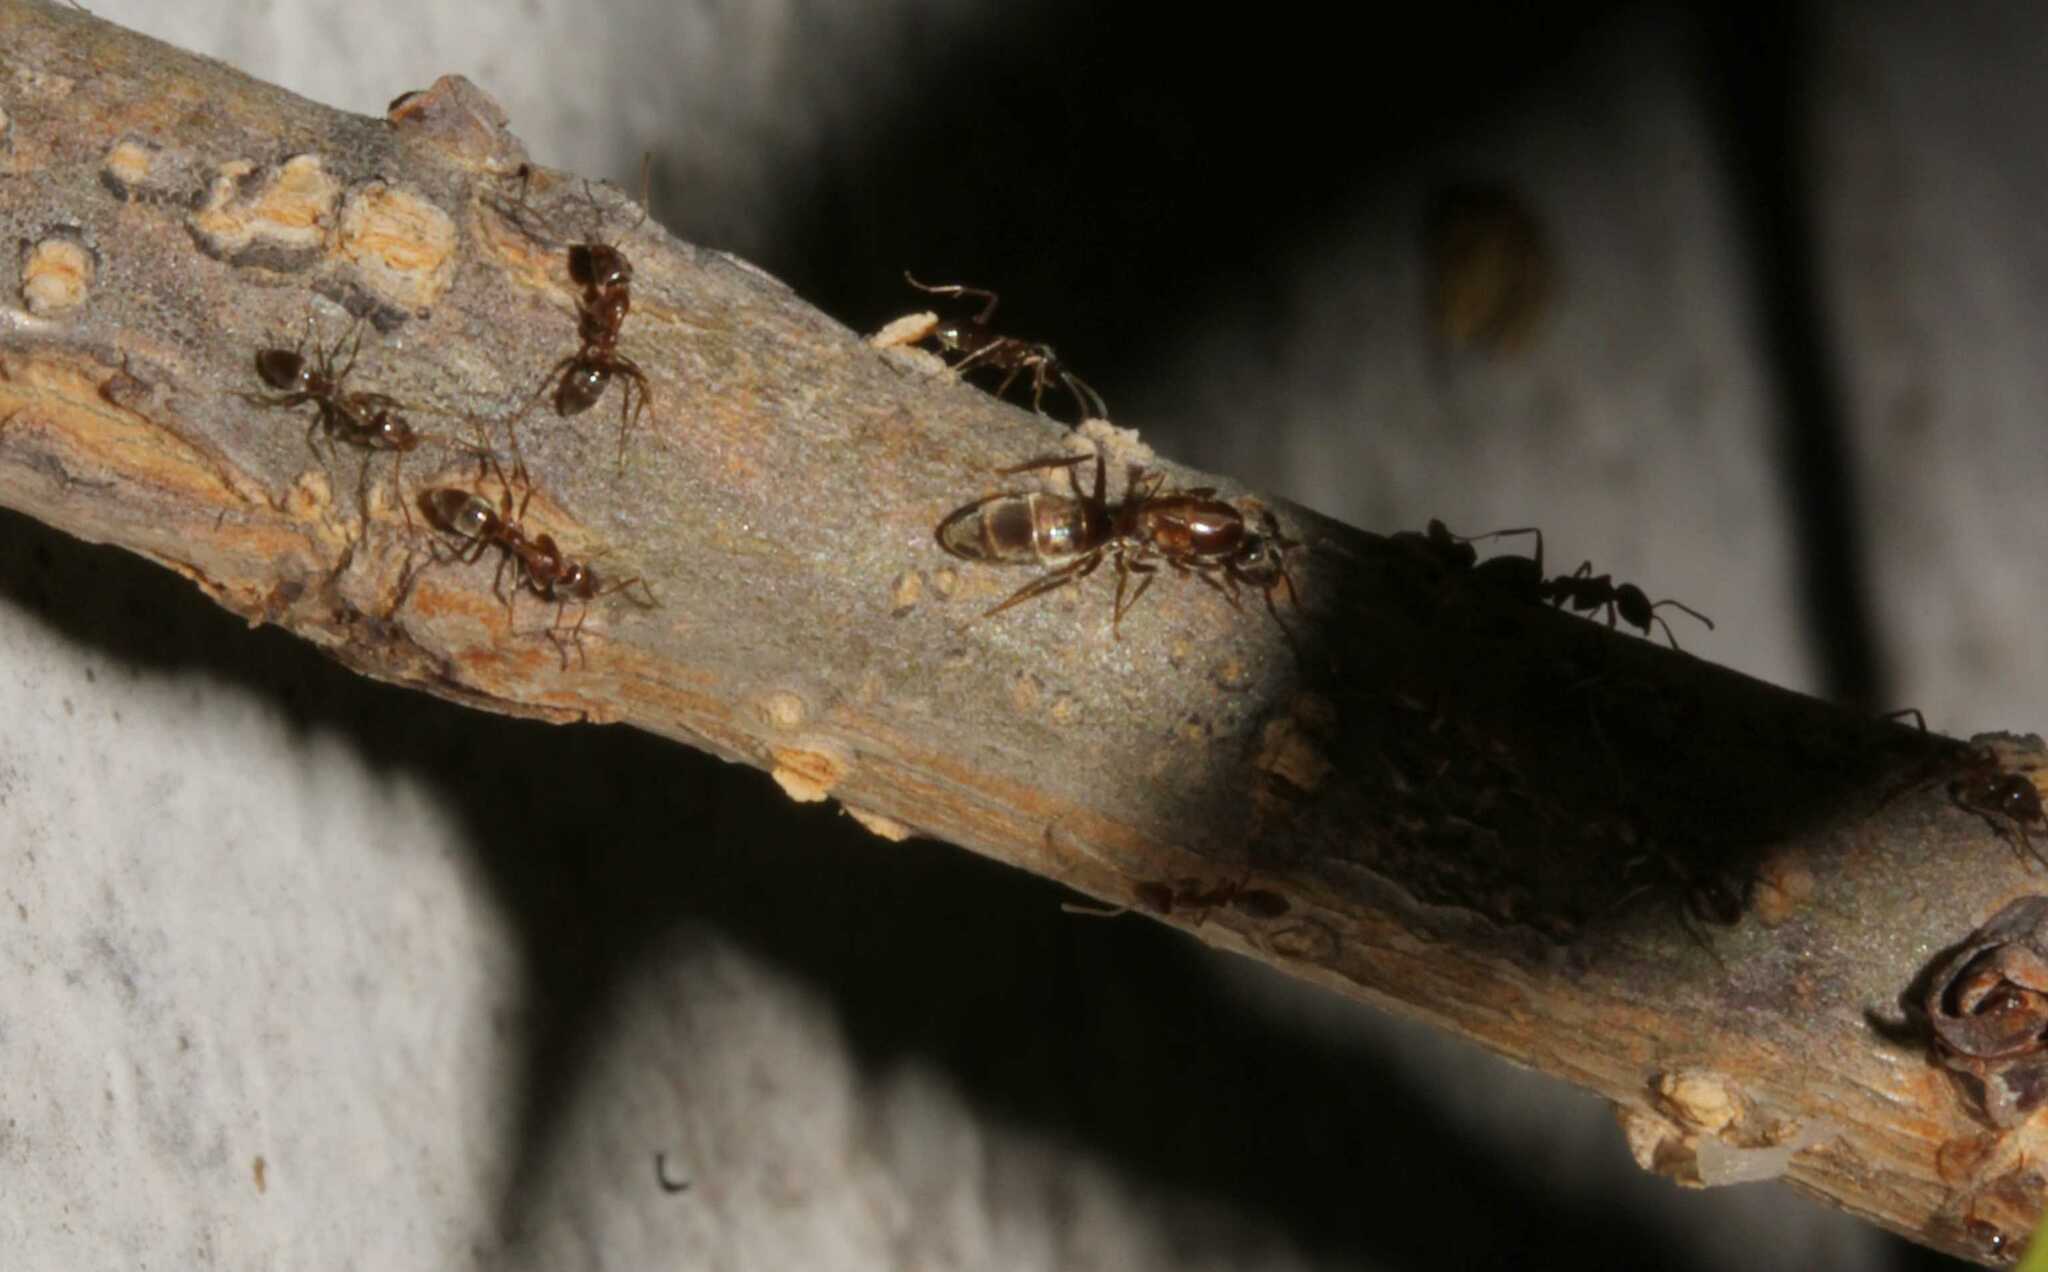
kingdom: Animalia
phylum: Arthropoda
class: Insecta
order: Hymenoptera
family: Formicidae
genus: Linepithema
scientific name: Linepithema humile
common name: Argentine ant
